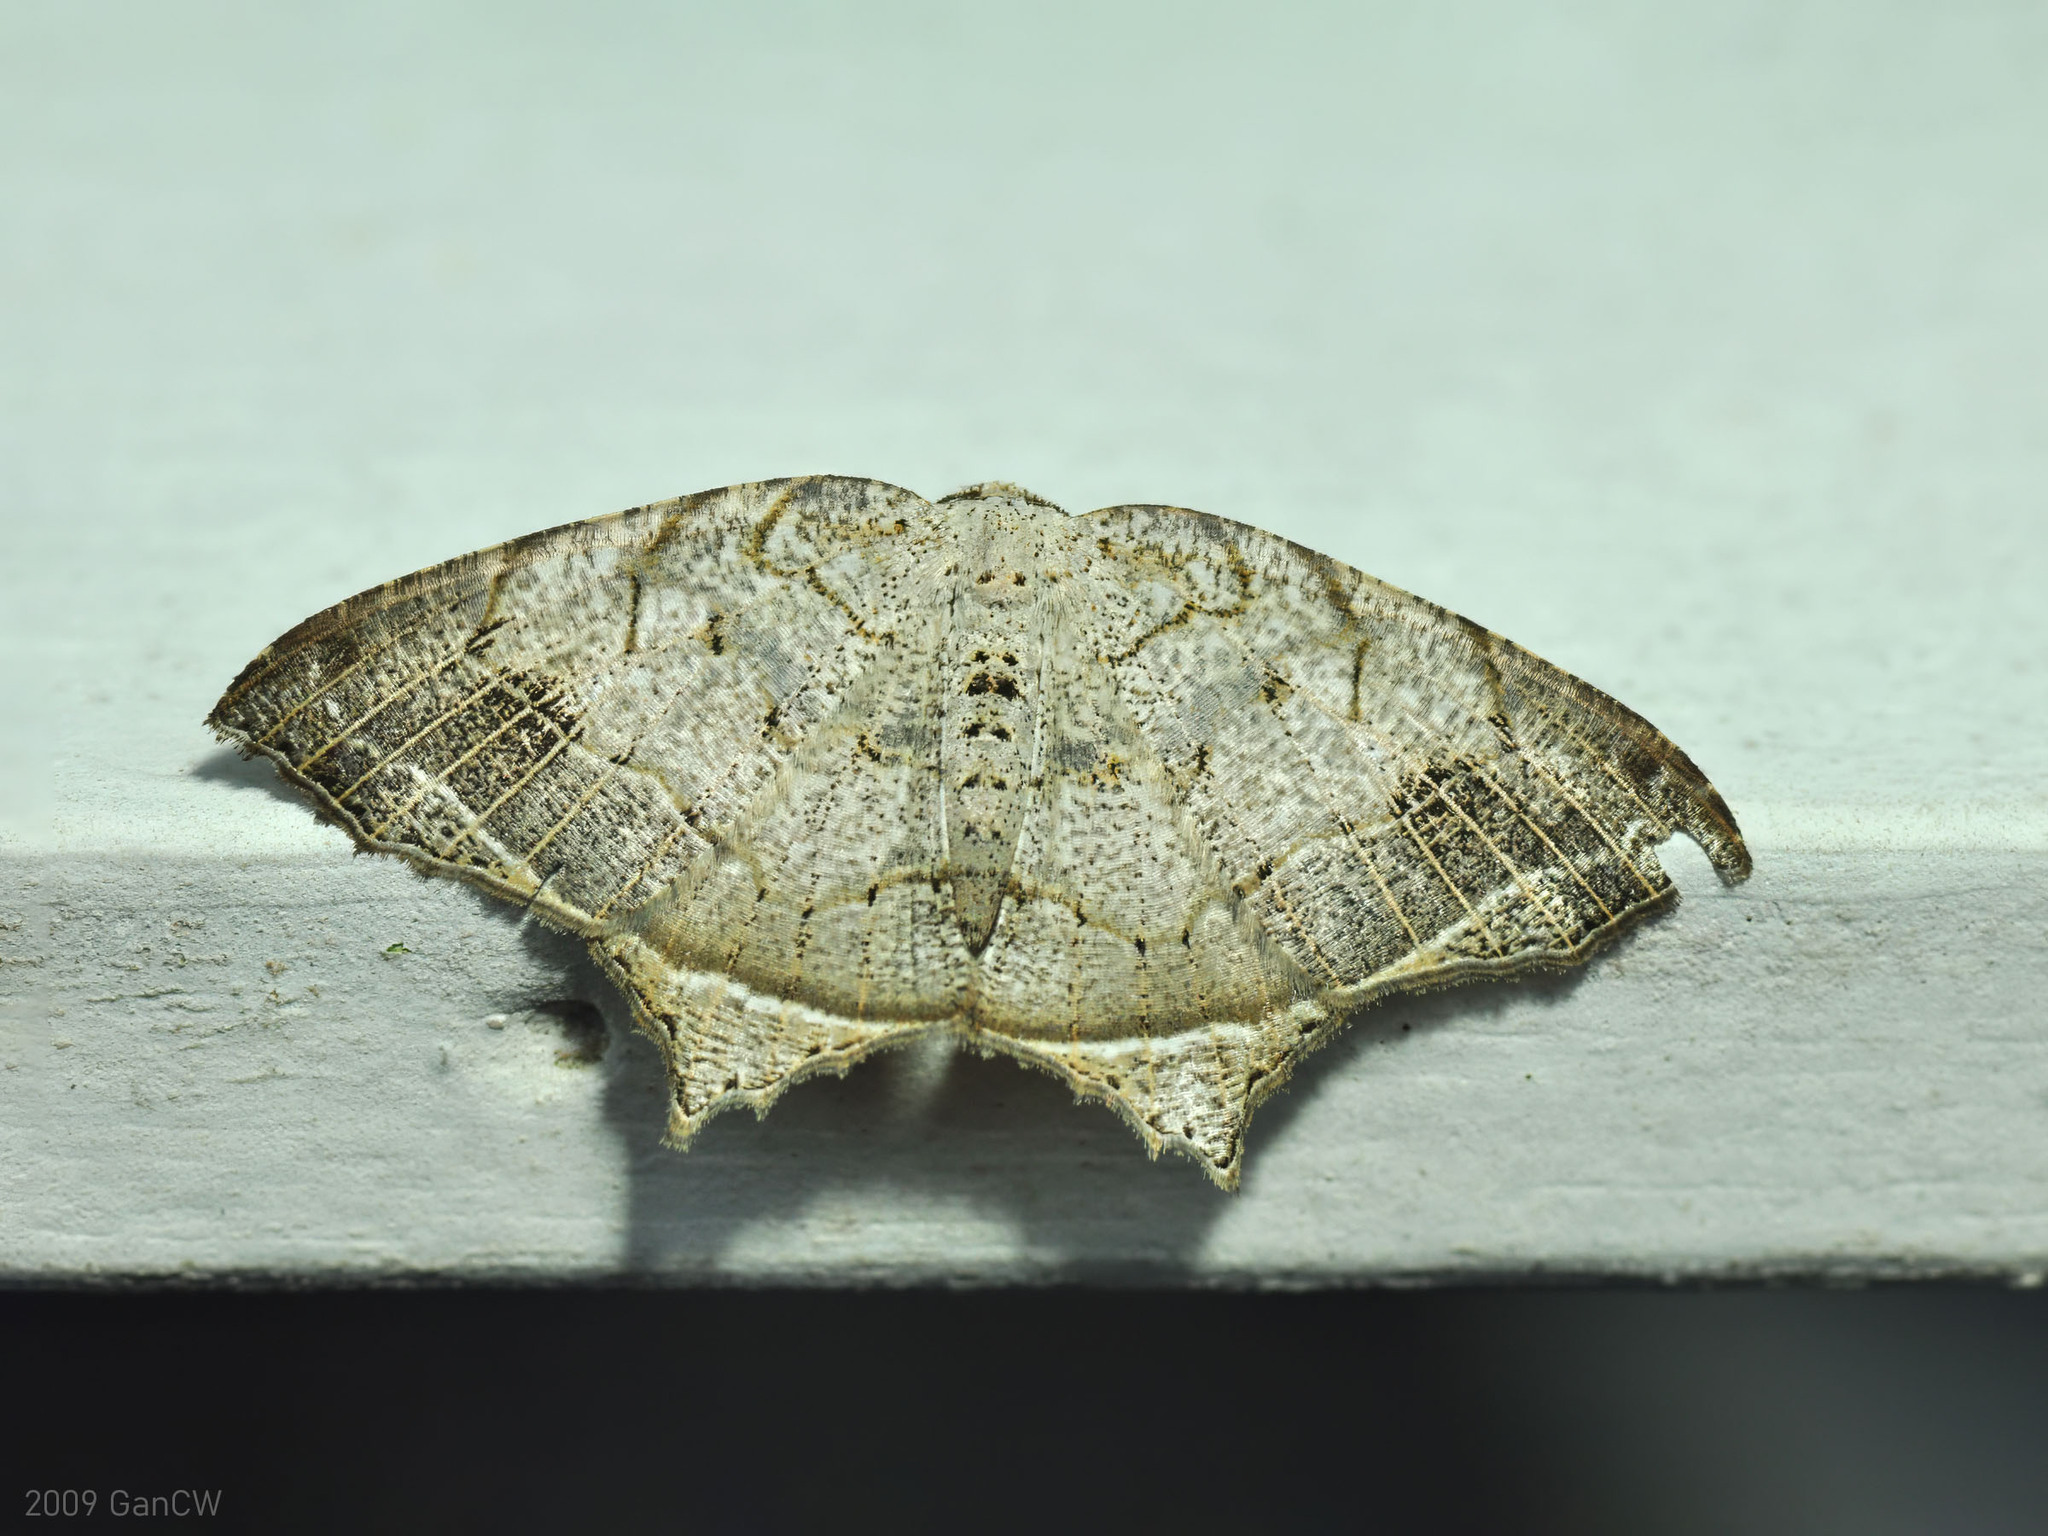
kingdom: Animalia
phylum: Arthropoda
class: Insecta
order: Lepidoptera
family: Geometridae
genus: Oxymacaria
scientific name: Oxymacaria temeraria
